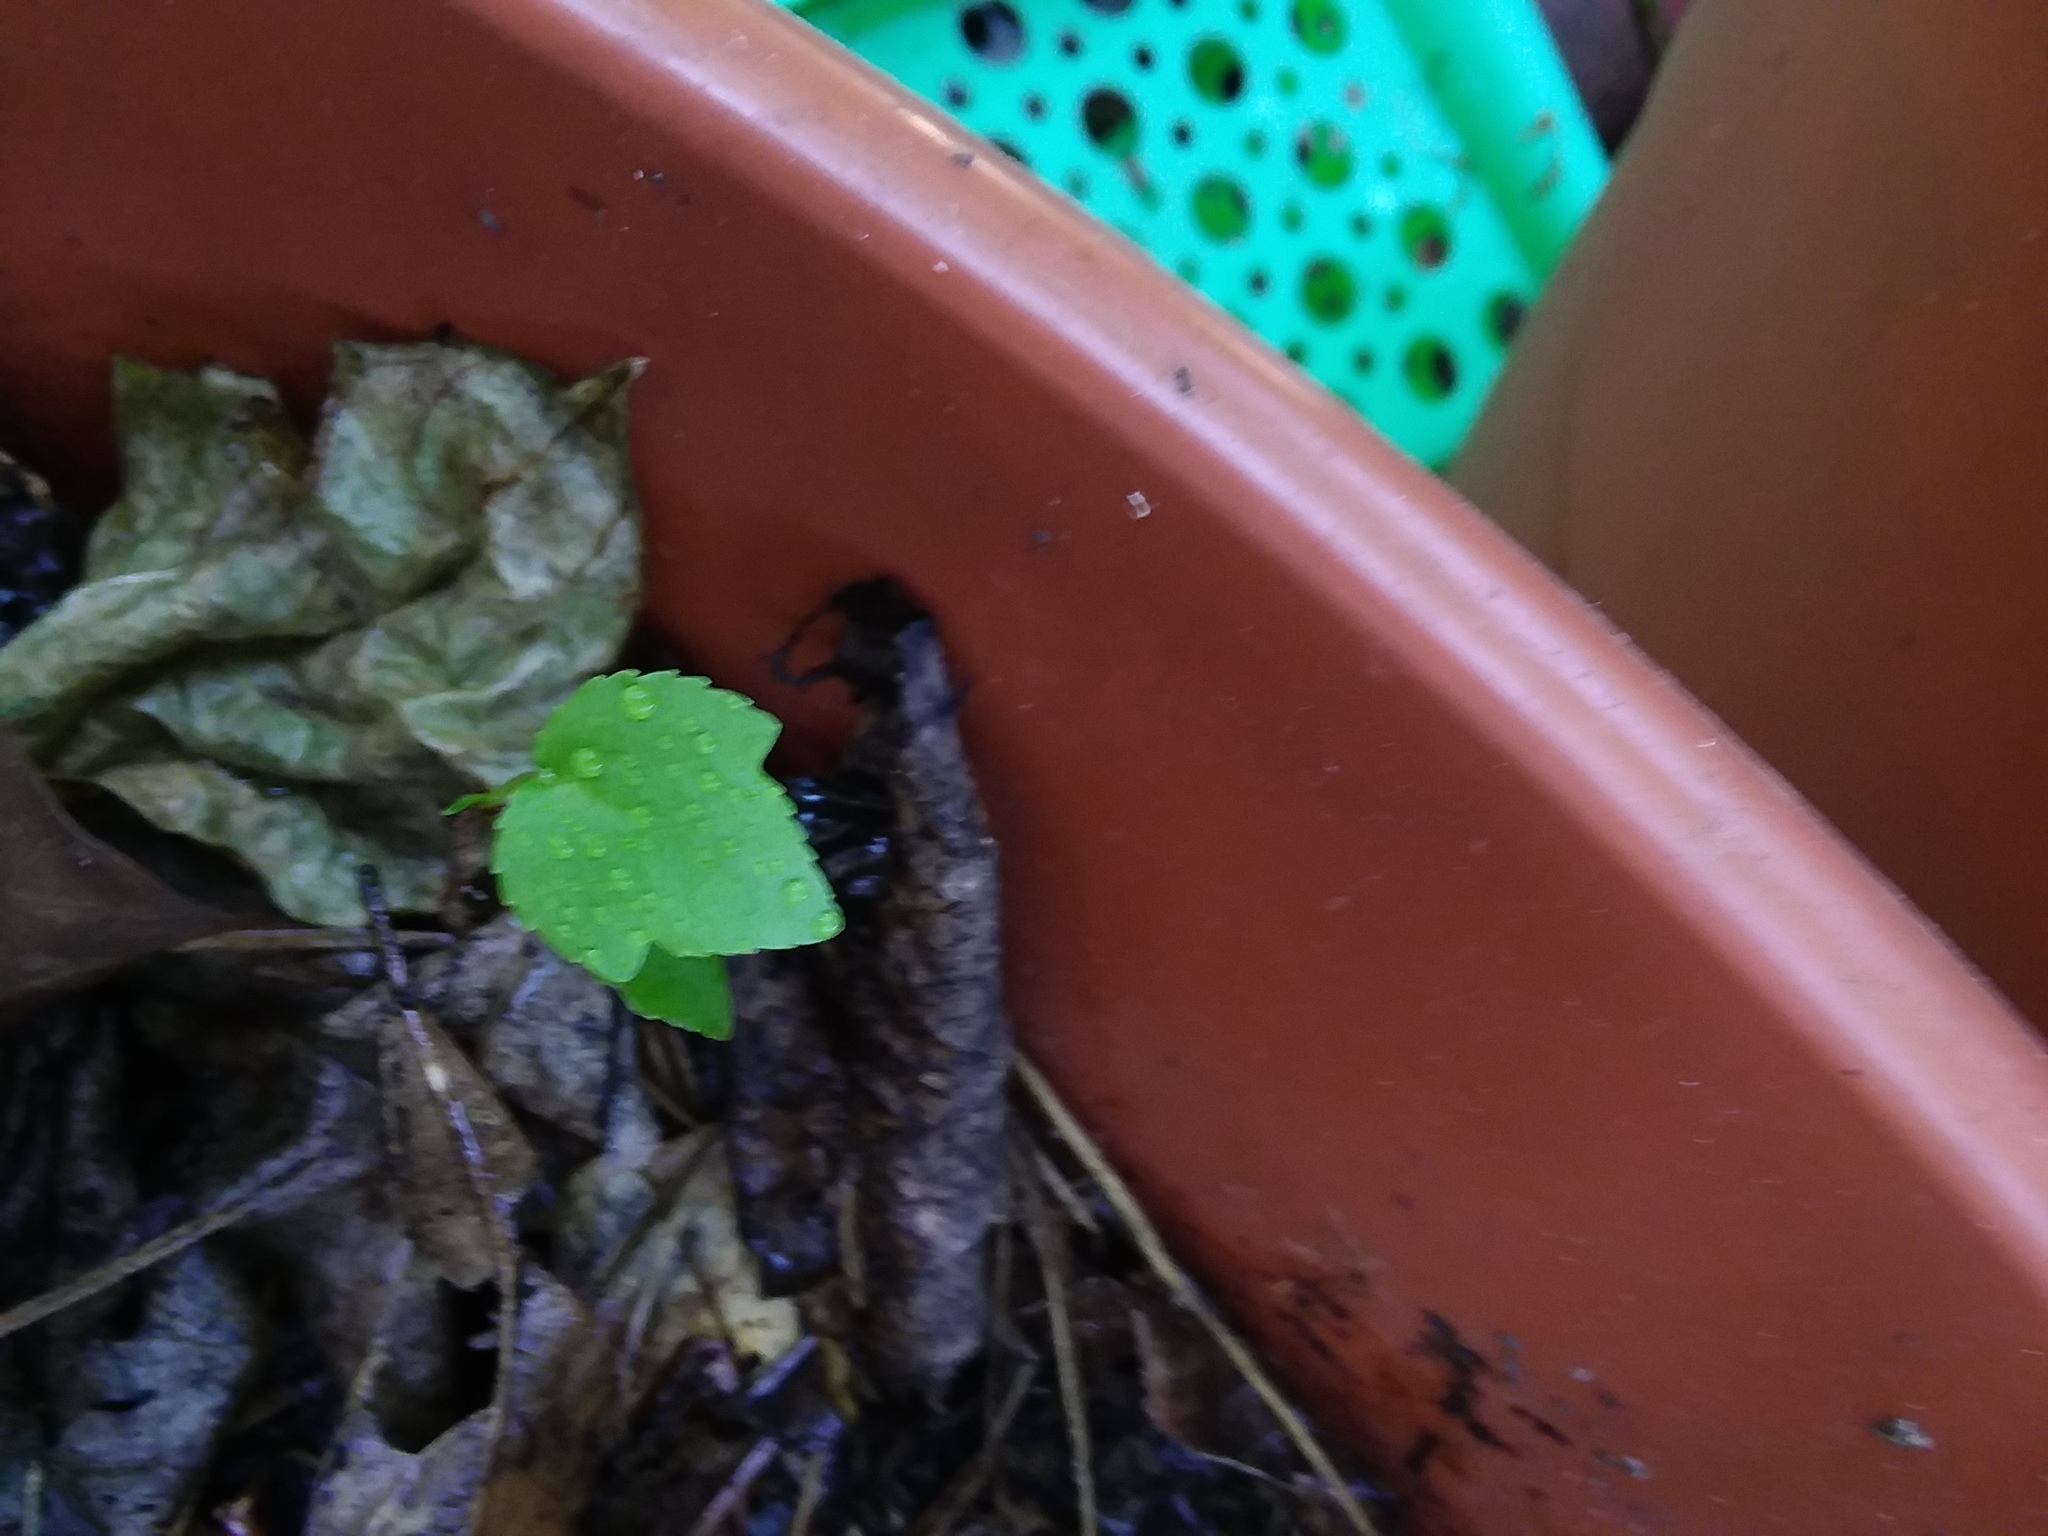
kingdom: Plantae
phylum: Tracheophyta
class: Magnoliopsida
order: Saxifragales
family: Altingiaceae
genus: Liquidambar
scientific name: Liquidambar styraciflua
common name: Sweet gum
